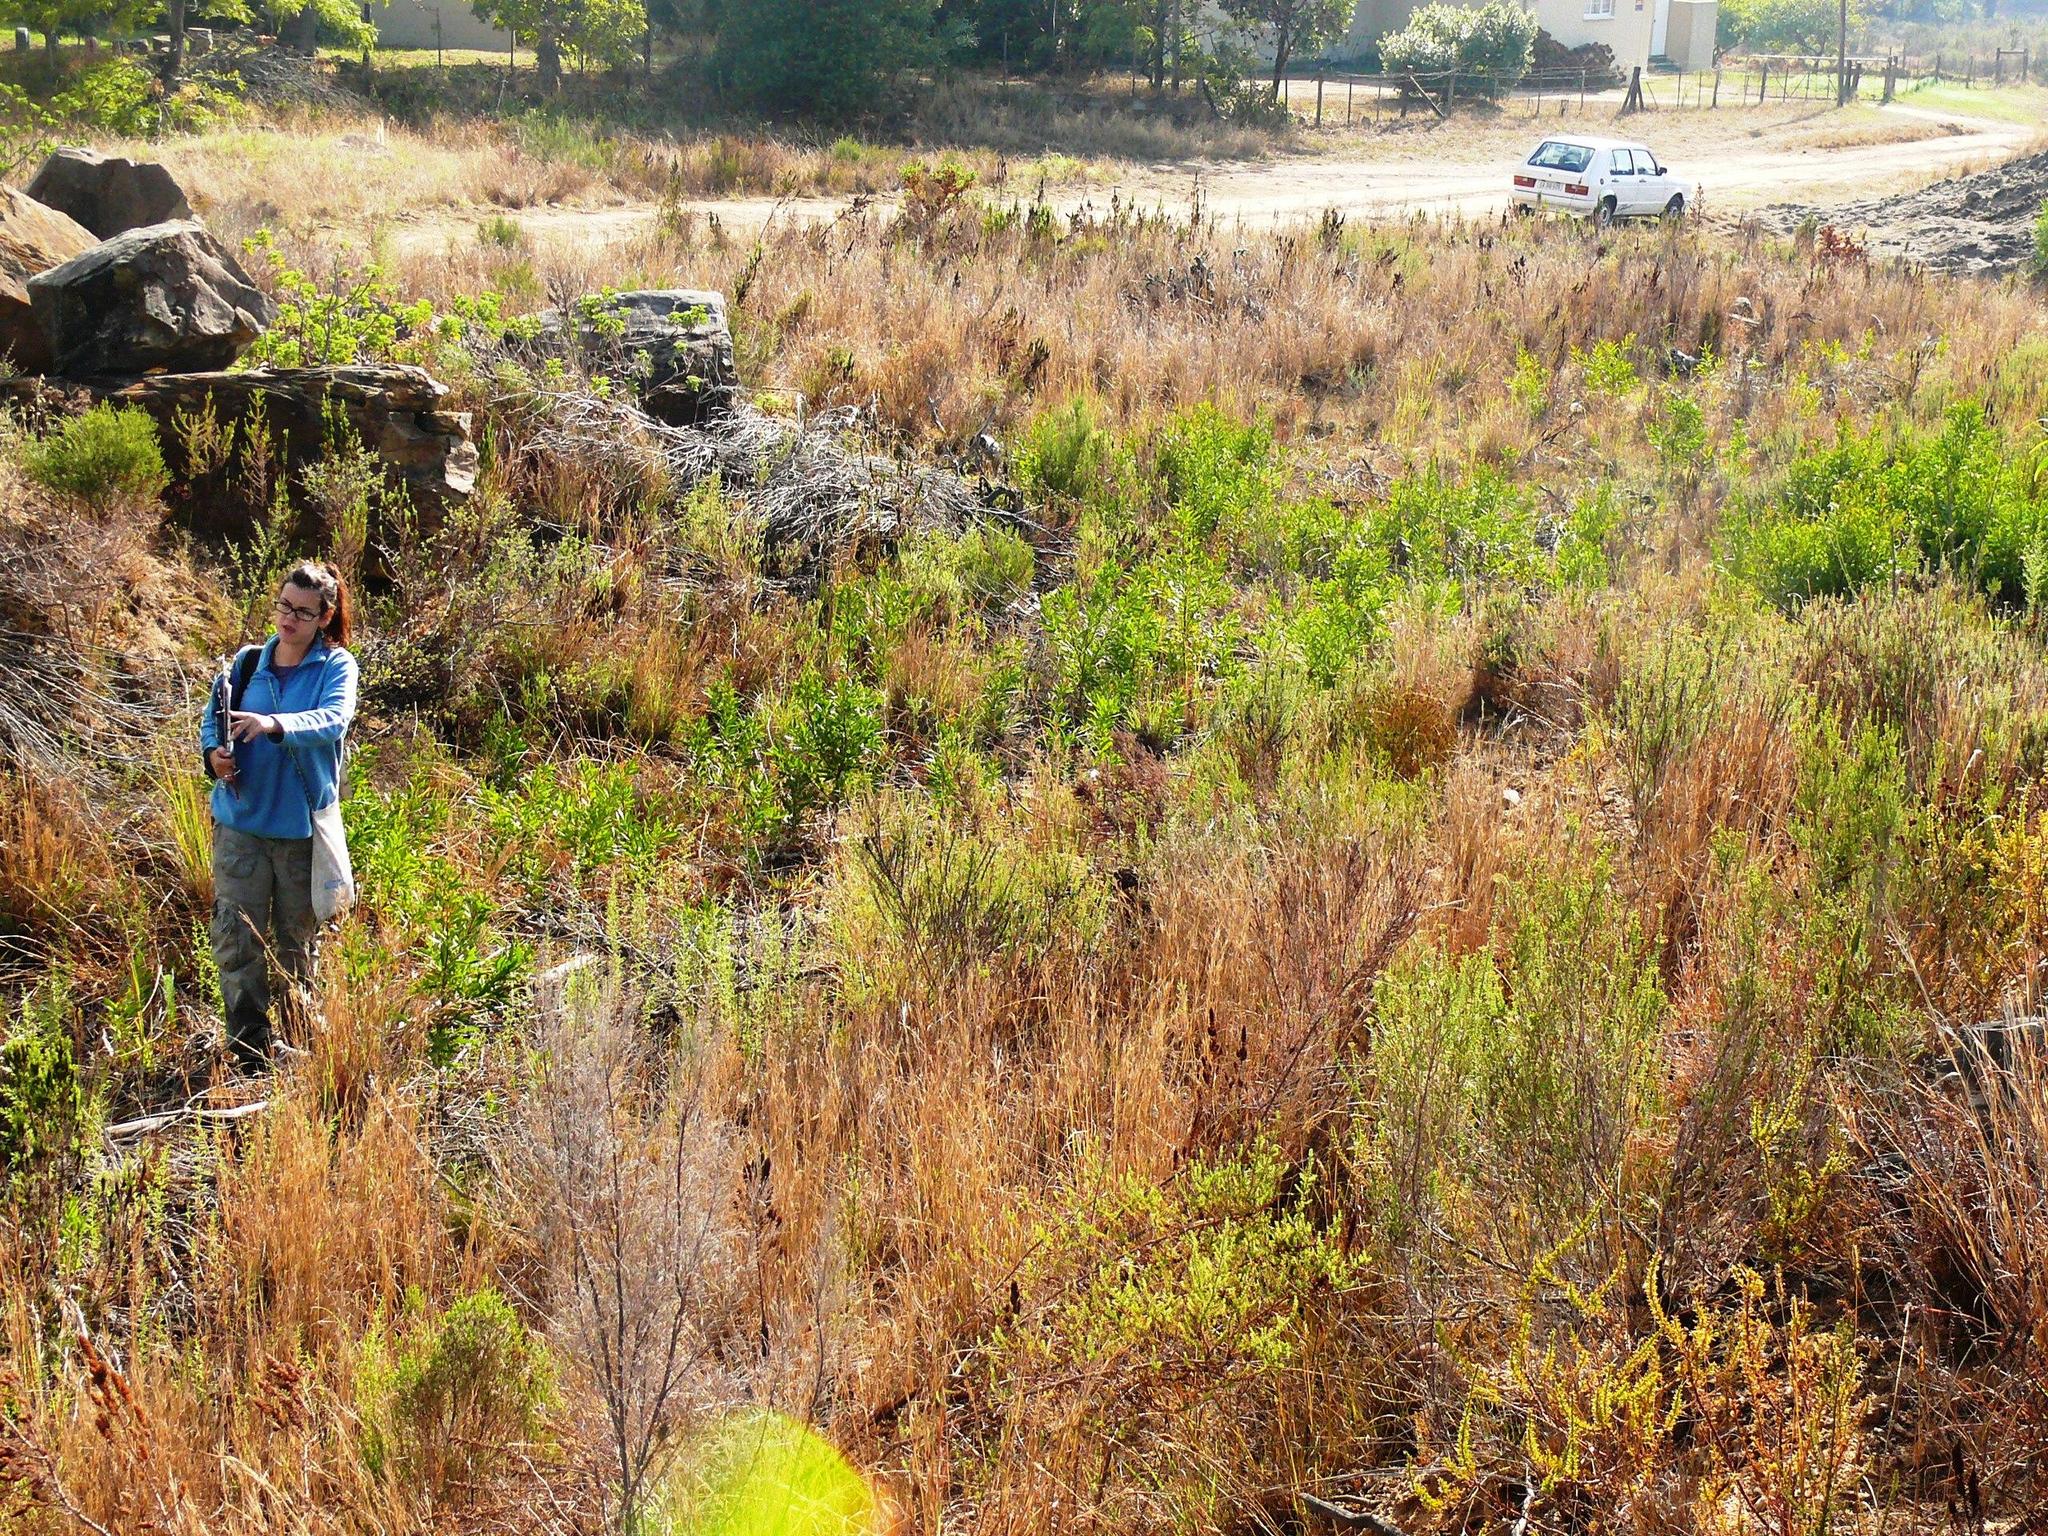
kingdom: Plantae
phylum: Tracheophyta
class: Magnoliopsida
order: Proteales
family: Proteaceae
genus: Hakea
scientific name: Hakea salicifolia
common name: Willow hakea
